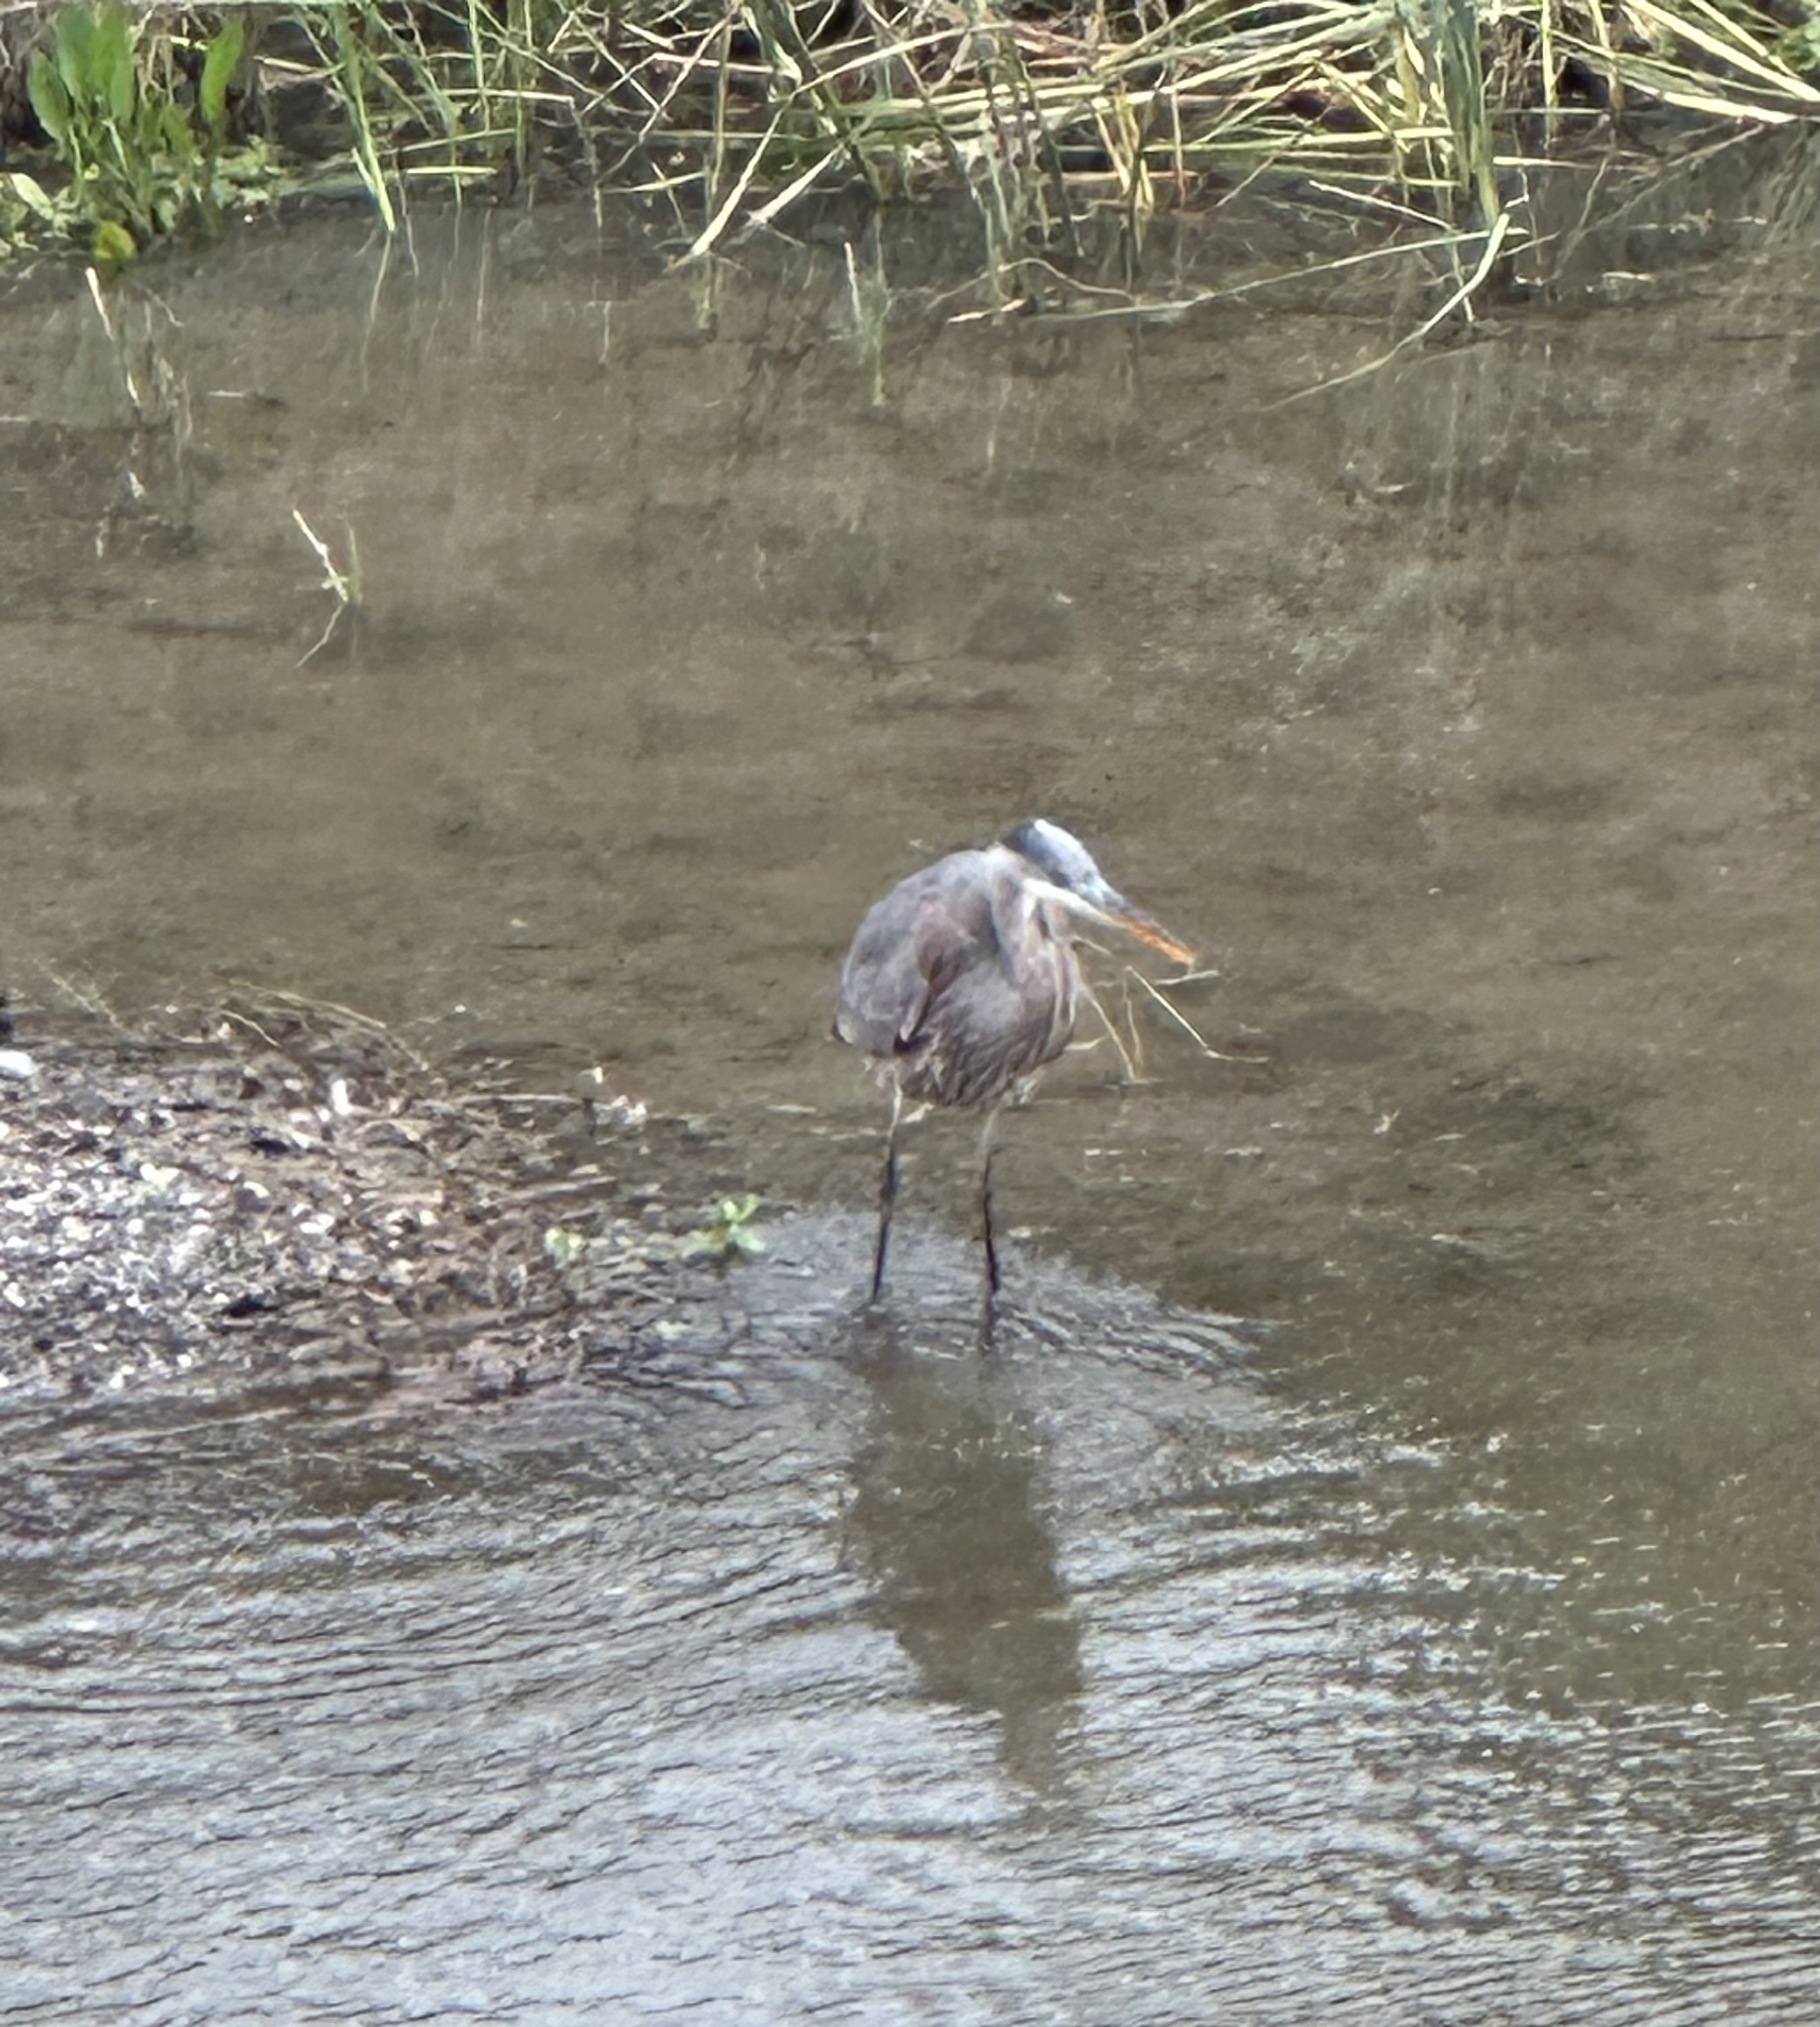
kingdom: Animalia
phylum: Chordata
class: Aves
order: Pelecaniformes
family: Ardeidae
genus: Ardea
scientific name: Ardea herodias
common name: Great blue heron
